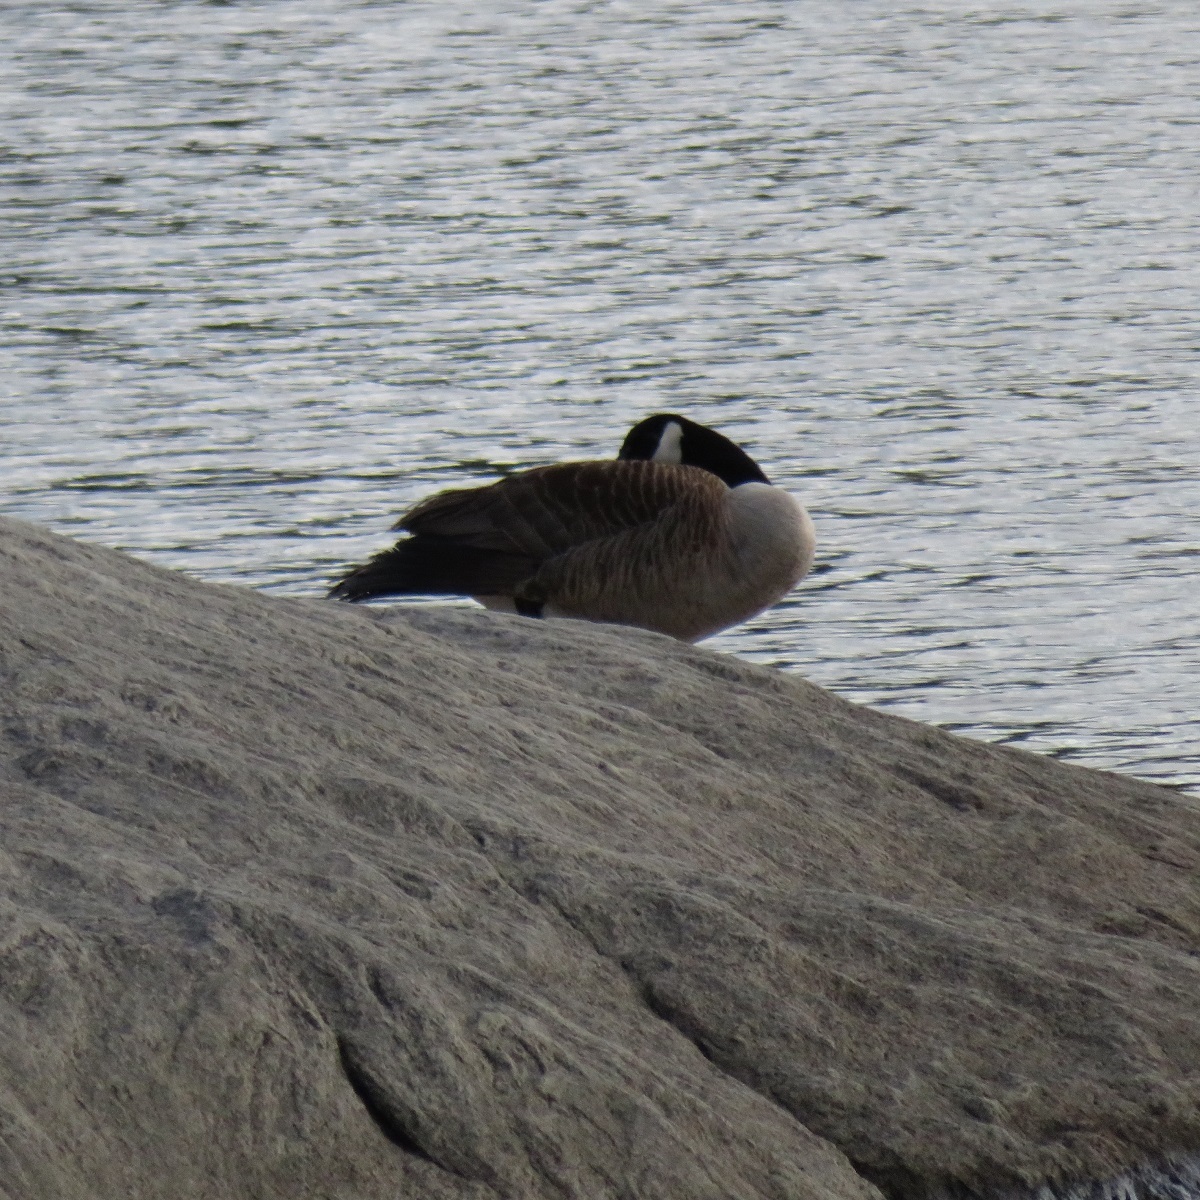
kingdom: Animalia
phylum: Chordata
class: Aves
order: Anseriformes
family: Anatidae
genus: Branta
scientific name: Branta canadensis
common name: Canada goose
